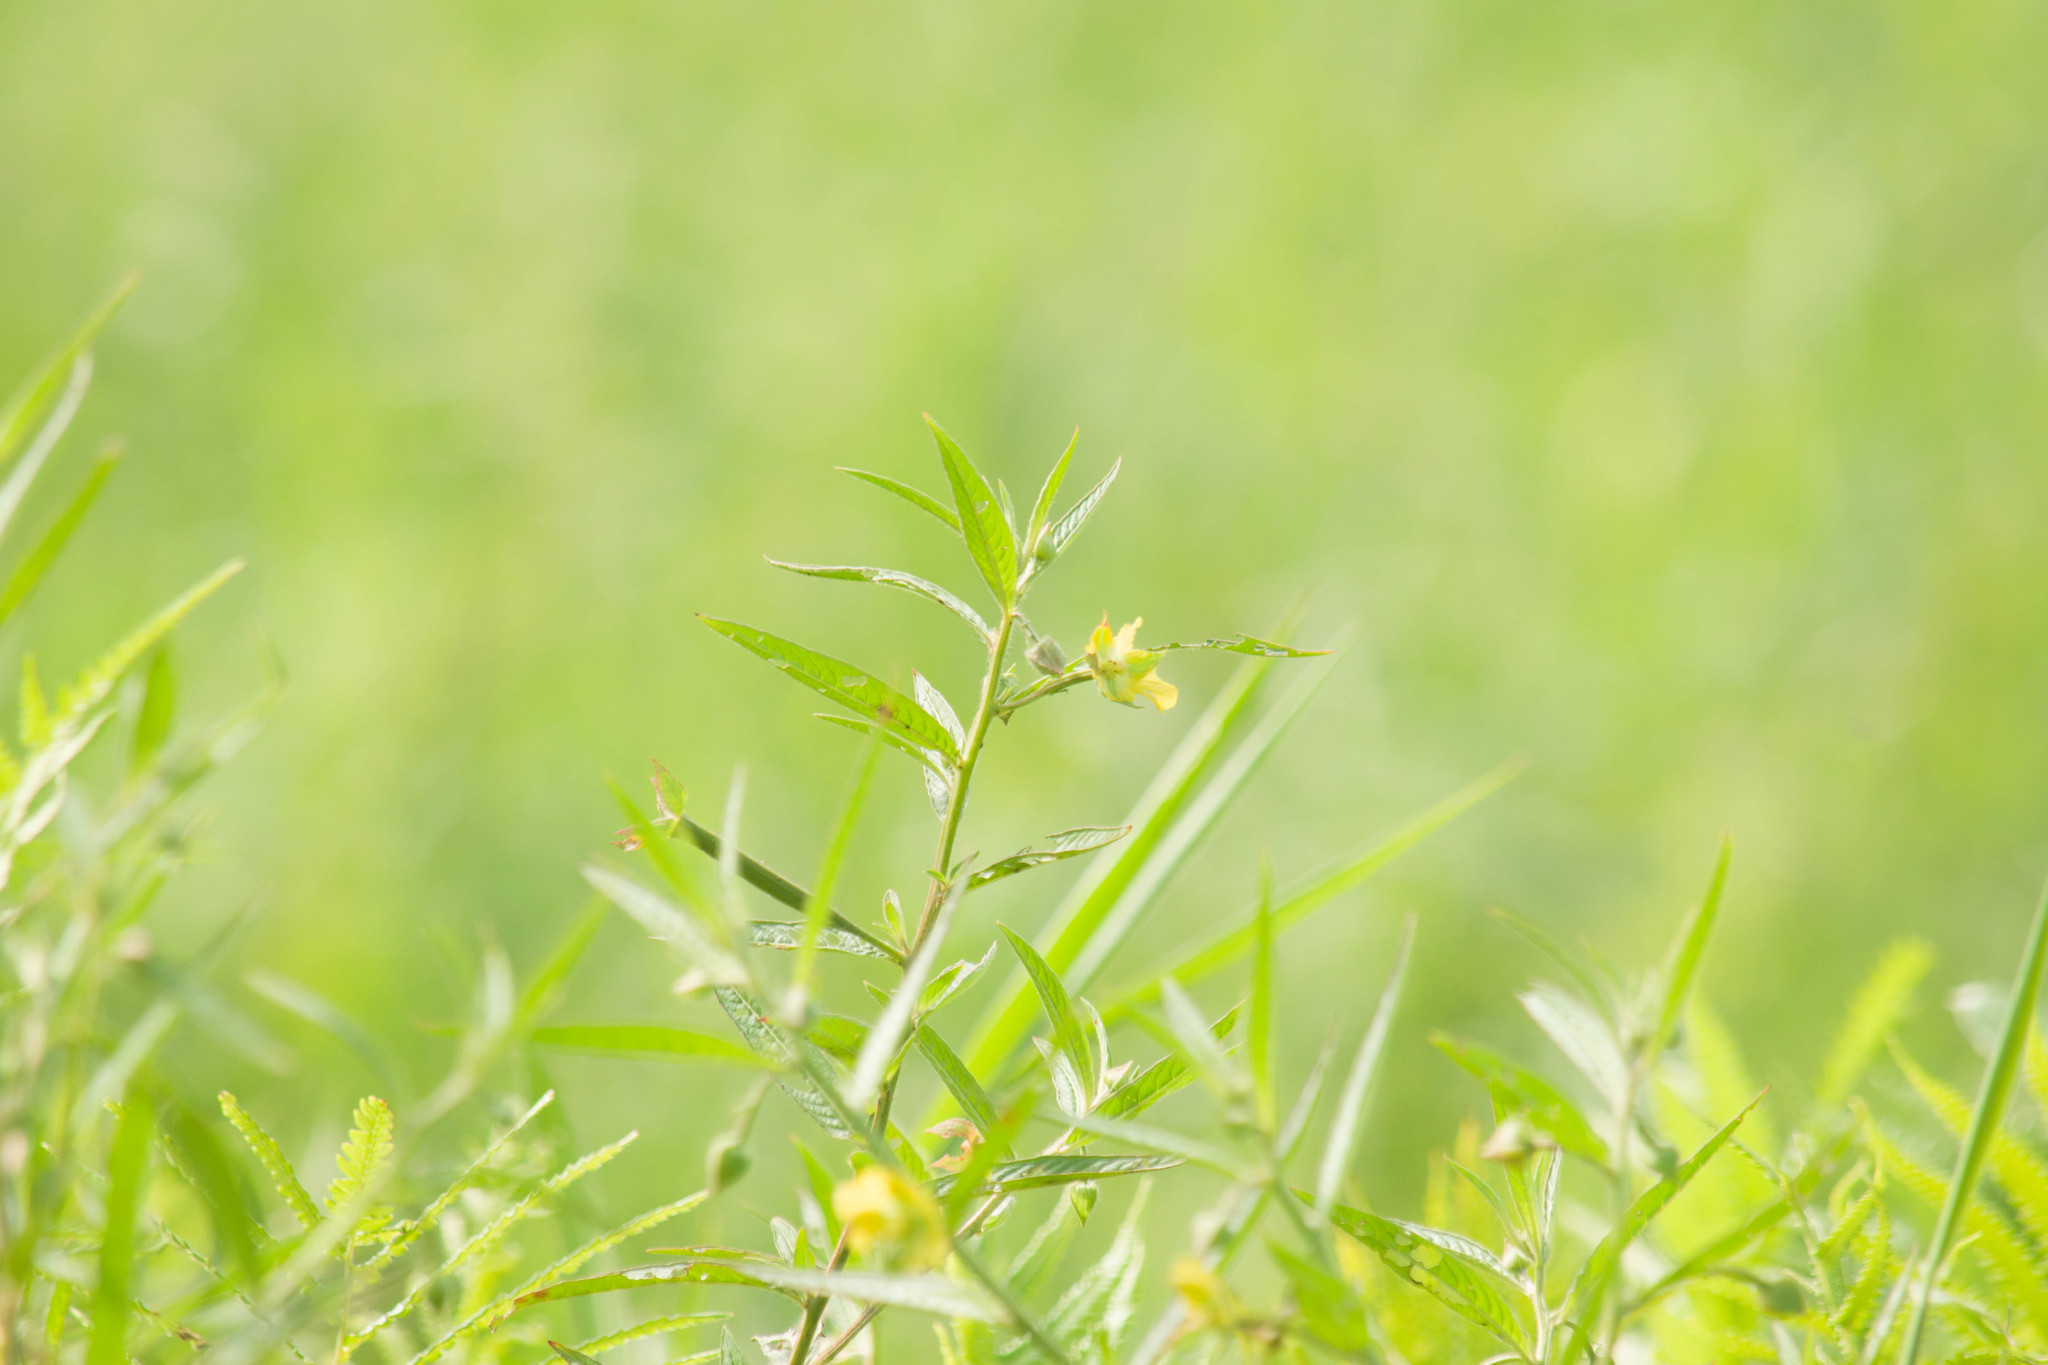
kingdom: Plantae
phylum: Tracheophyta
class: Magnoliopsida
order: Myrtales
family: Onagraceae
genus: Ludwigia
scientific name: Ludwigia octovalvis
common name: Water-primrose
